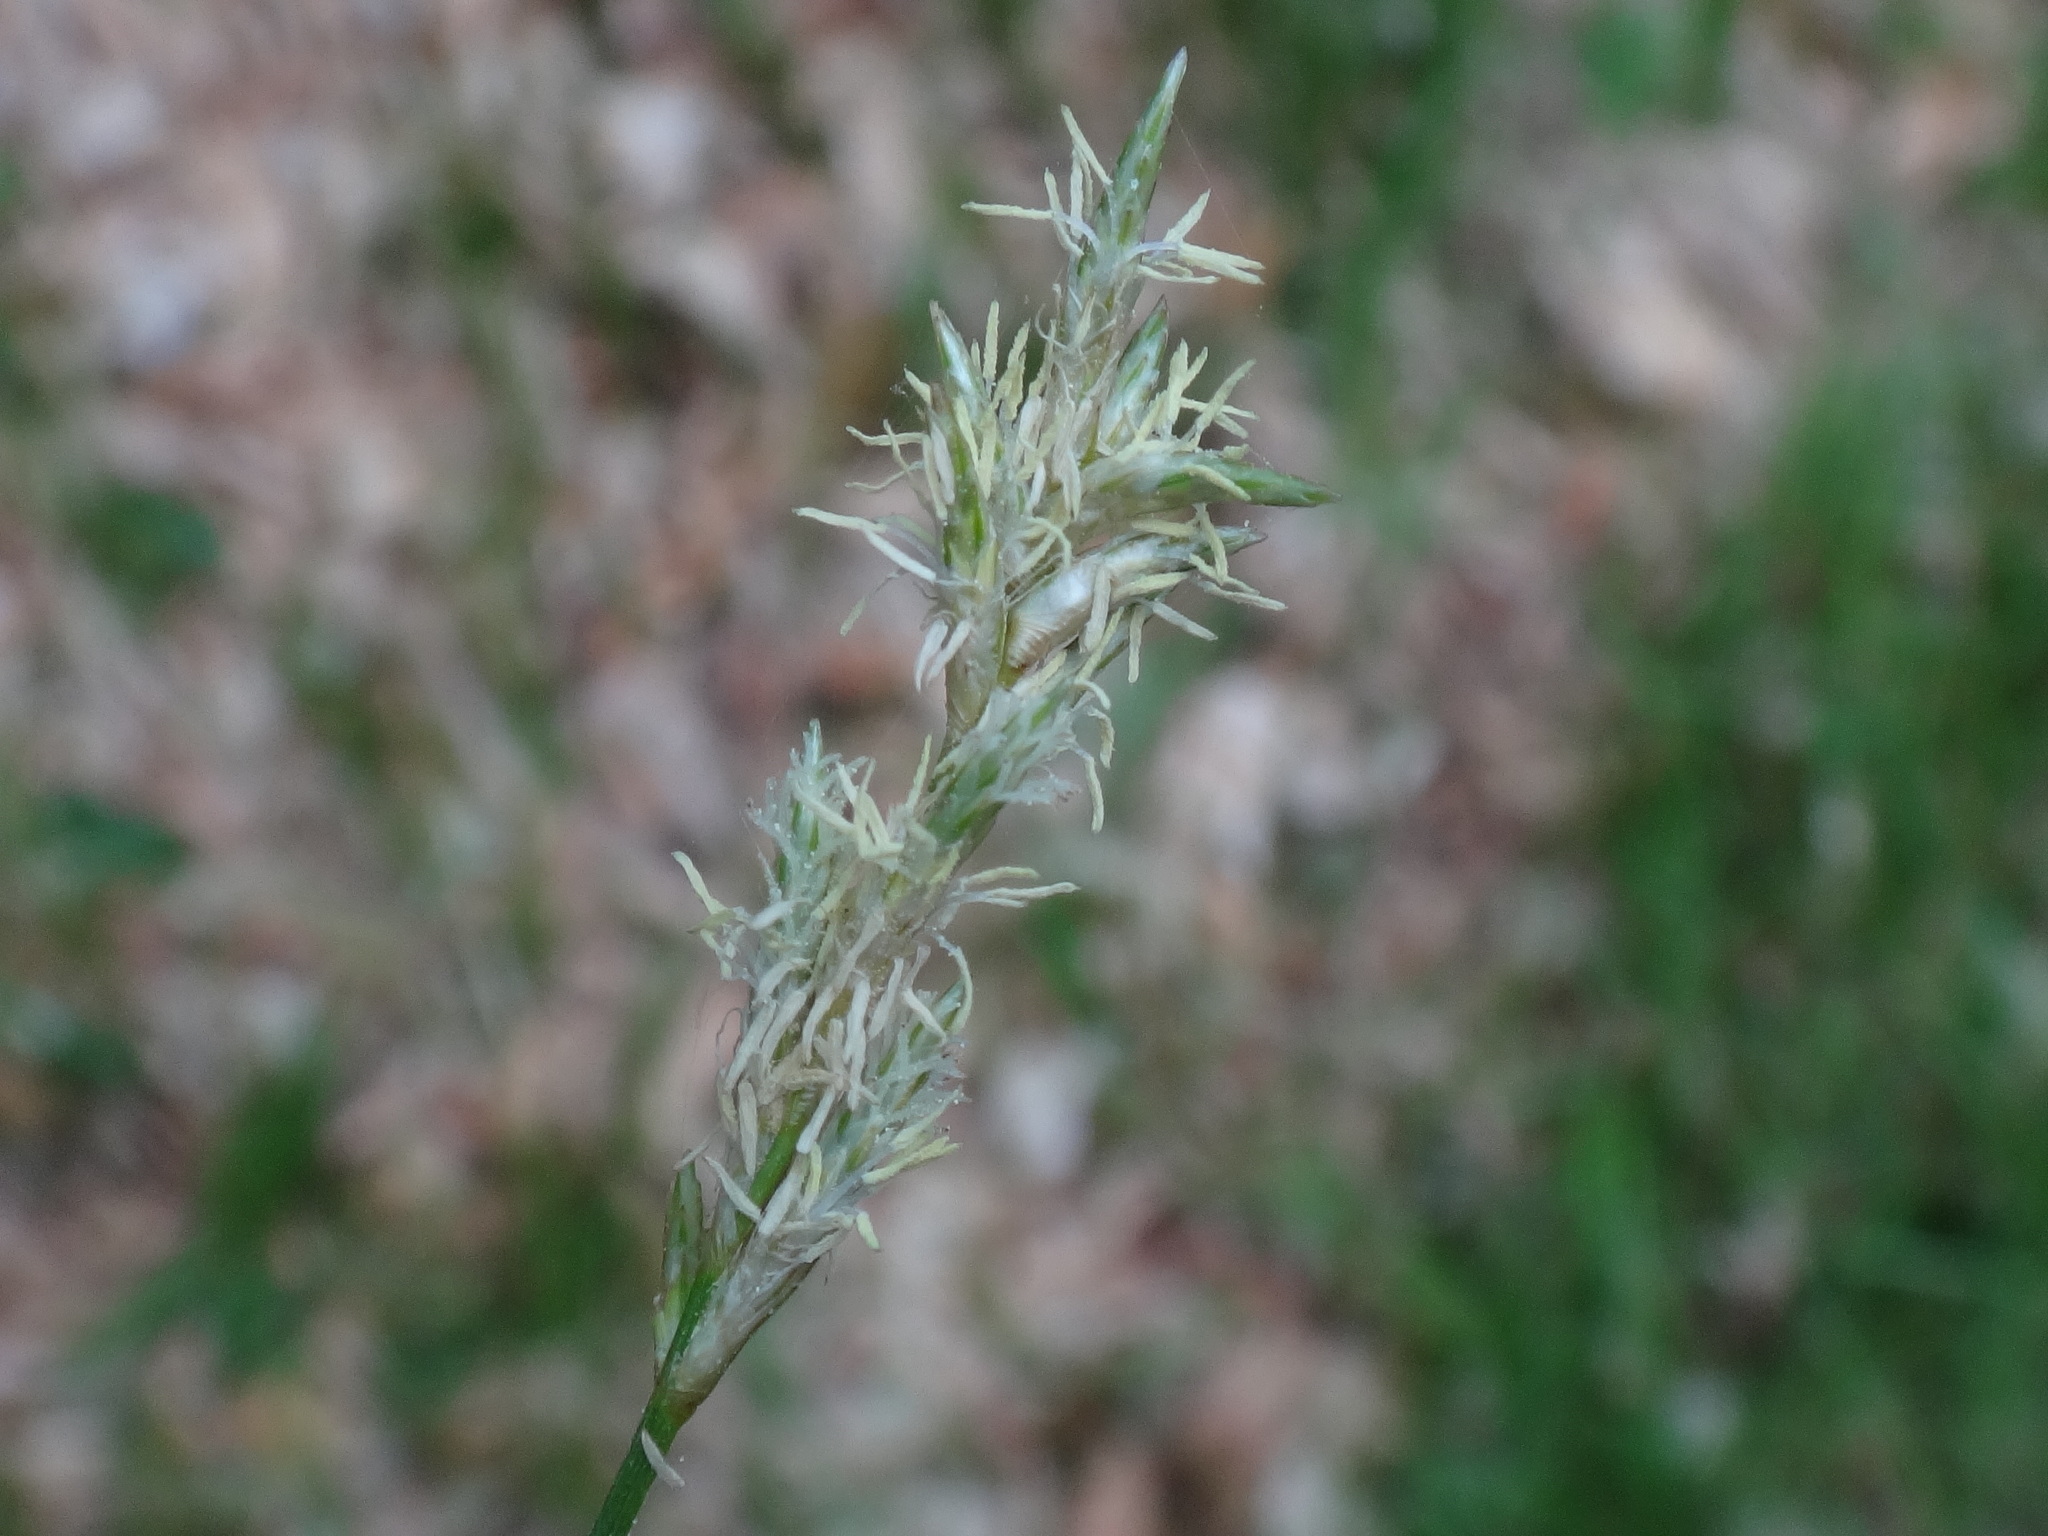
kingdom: Plantae
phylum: Tracheophyta
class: Liliopsida
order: Poales
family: Cyperaceae
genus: Carex
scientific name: Carex brizoides
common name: Quaking-grass sedge
